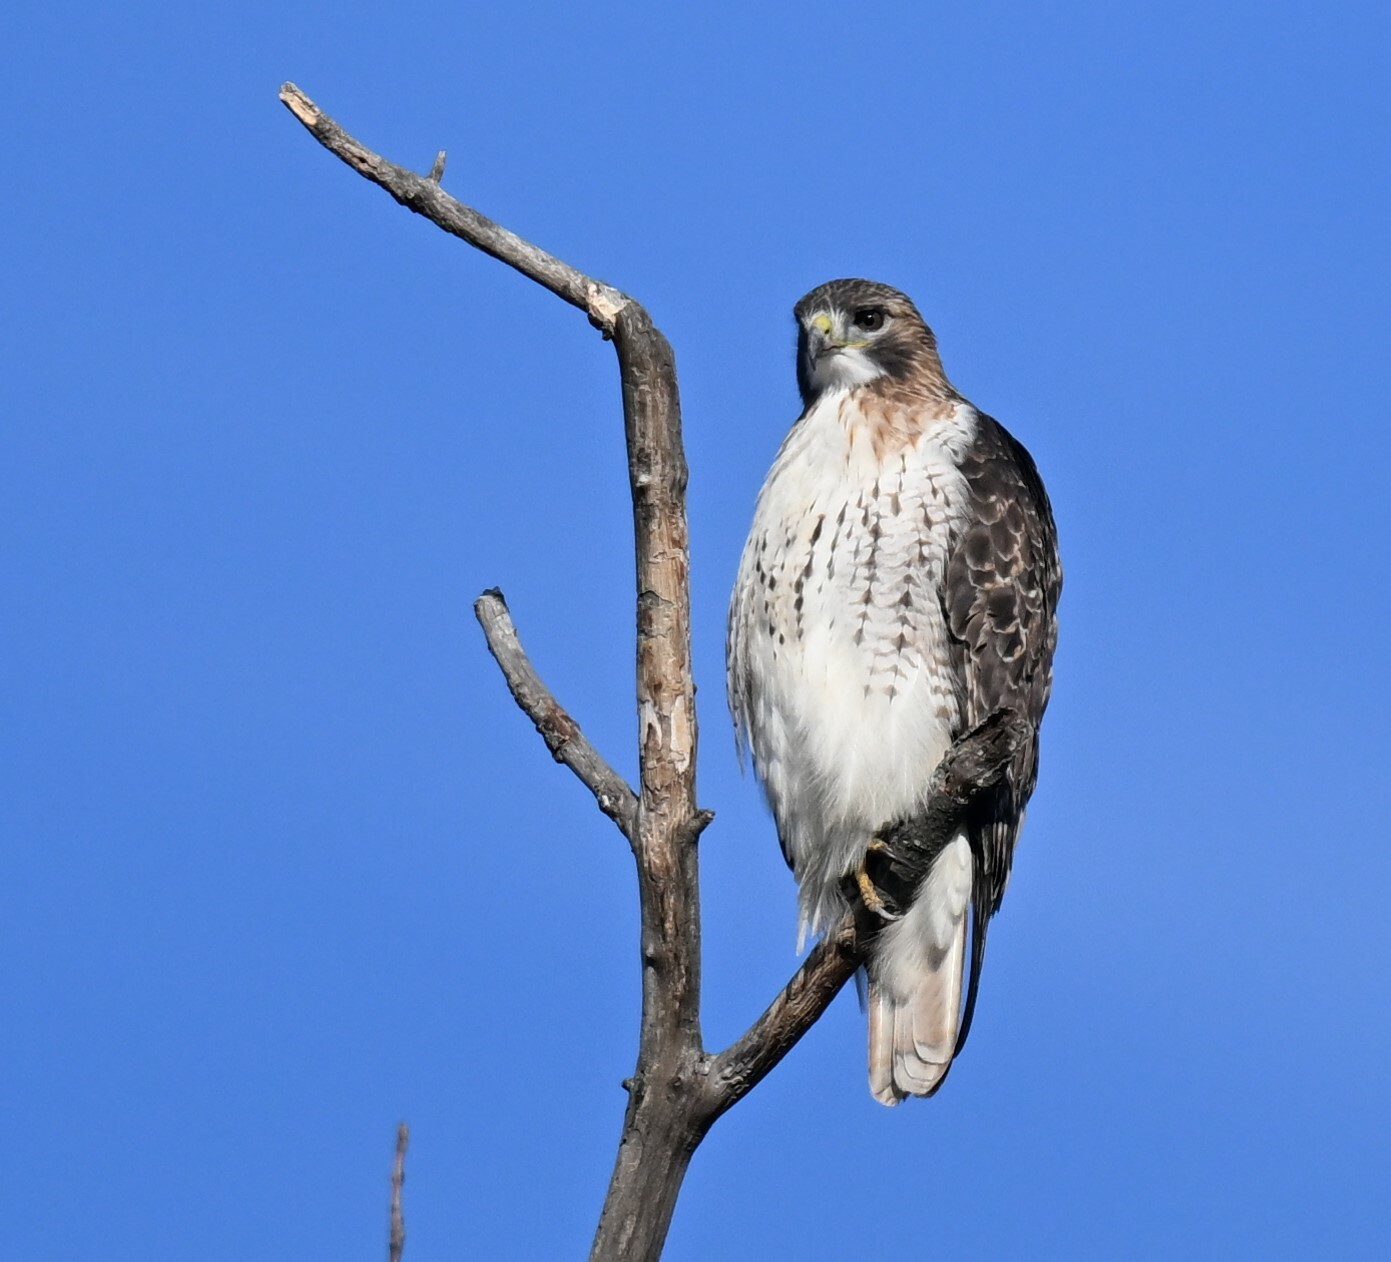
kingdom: Animalia
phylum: Chordata
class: Aves
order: Accipitriformes
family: Accipitridae
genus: Buteo
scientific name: Buteo jamaicensis
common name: Red-tailed hawk
